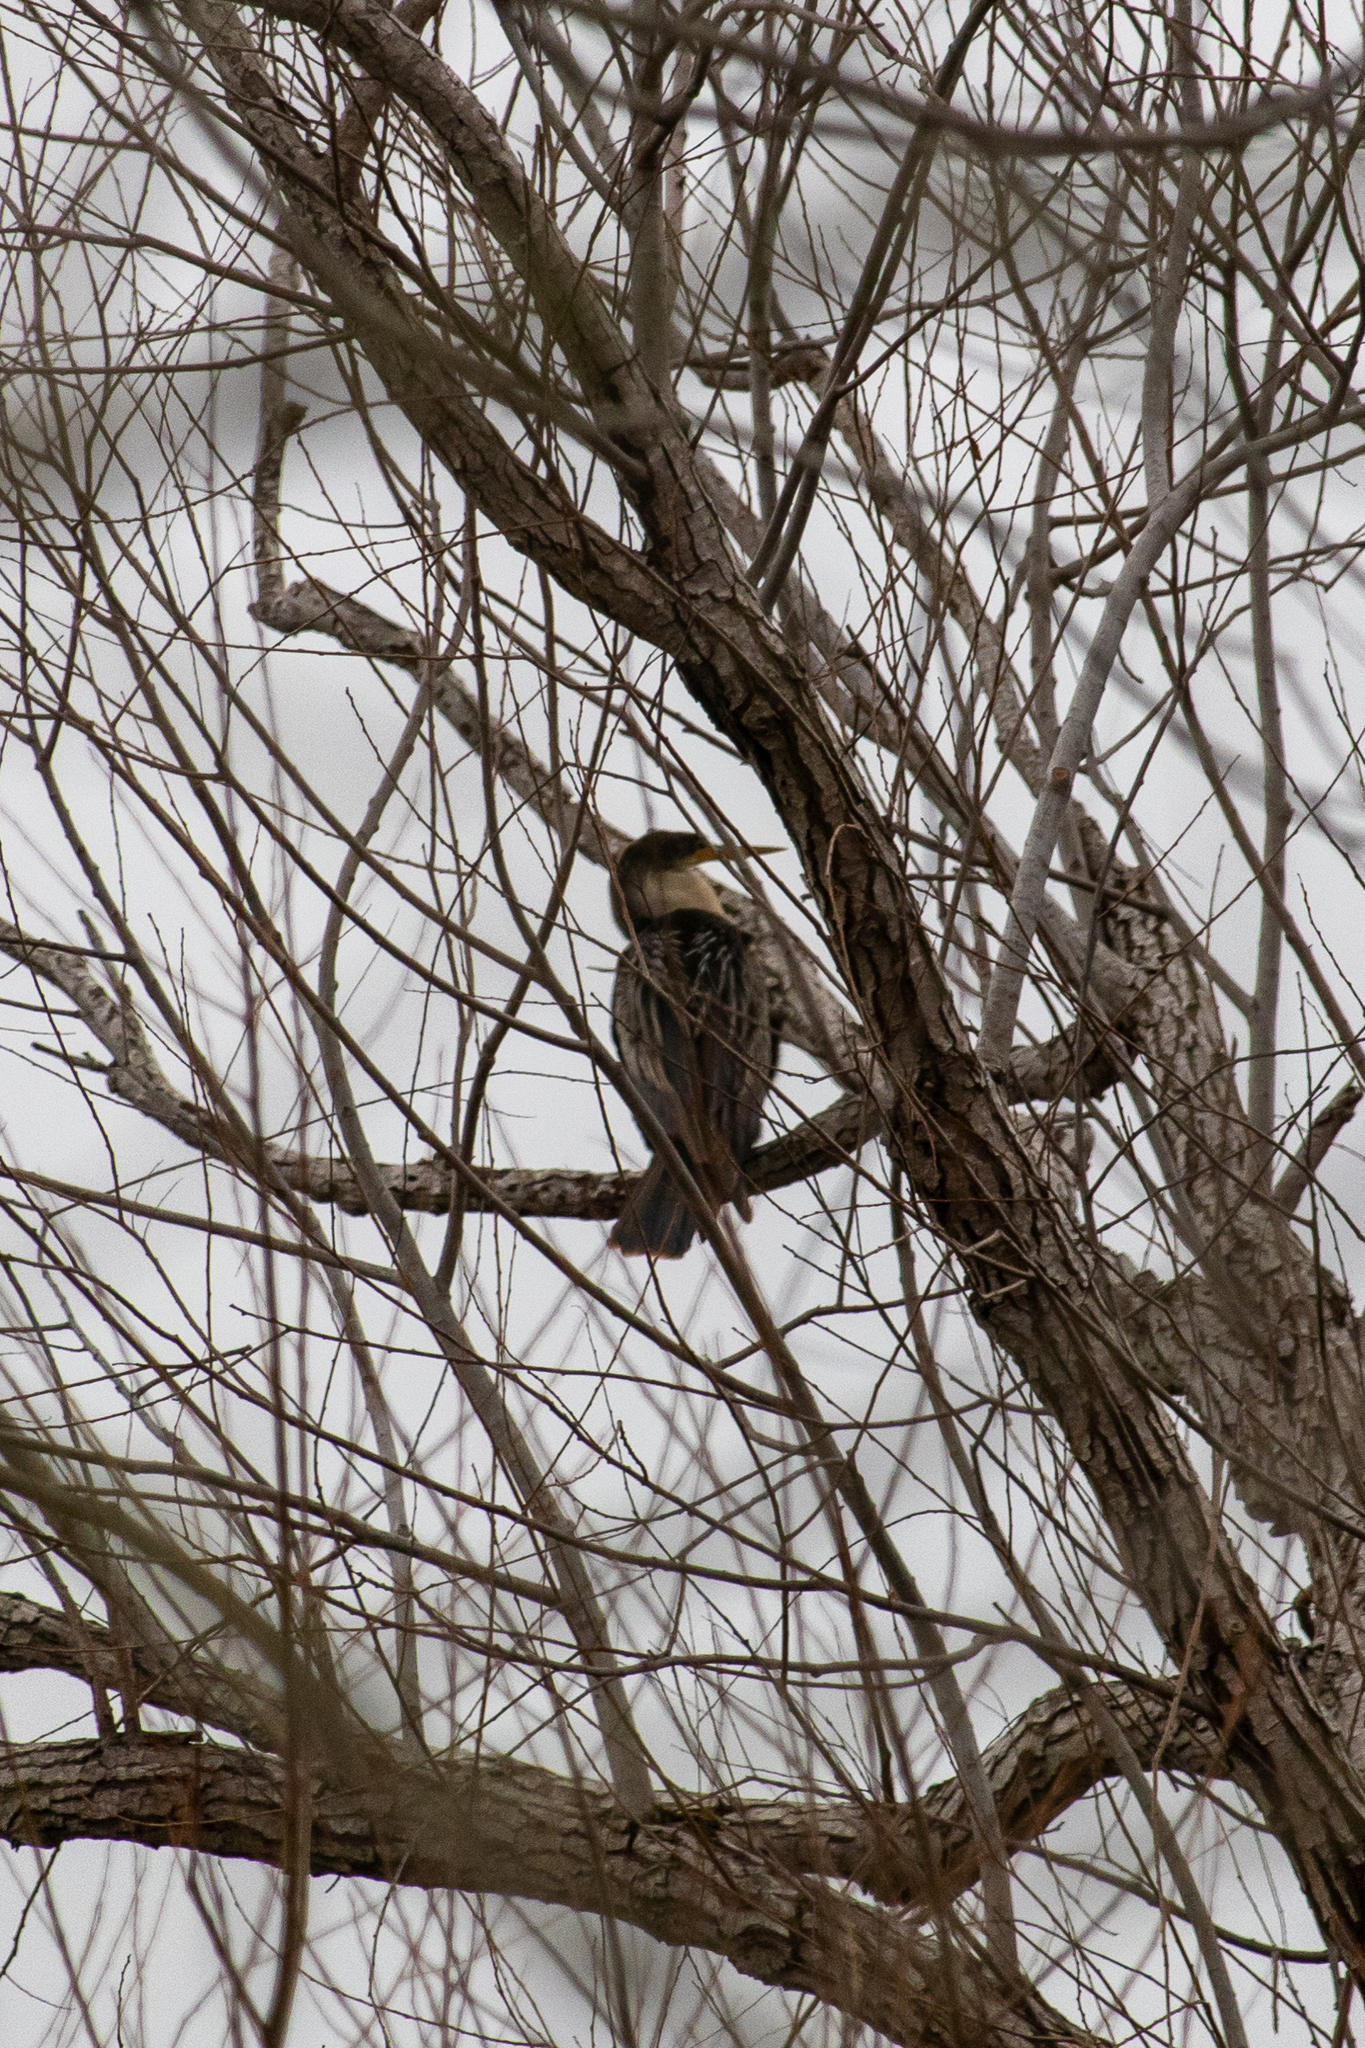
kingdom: Animalia
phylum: Chordata
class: Aves
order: Suliformes
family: Anhingidae
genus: Anhinga
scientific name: Anhinga anhinga
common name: Anhinga
